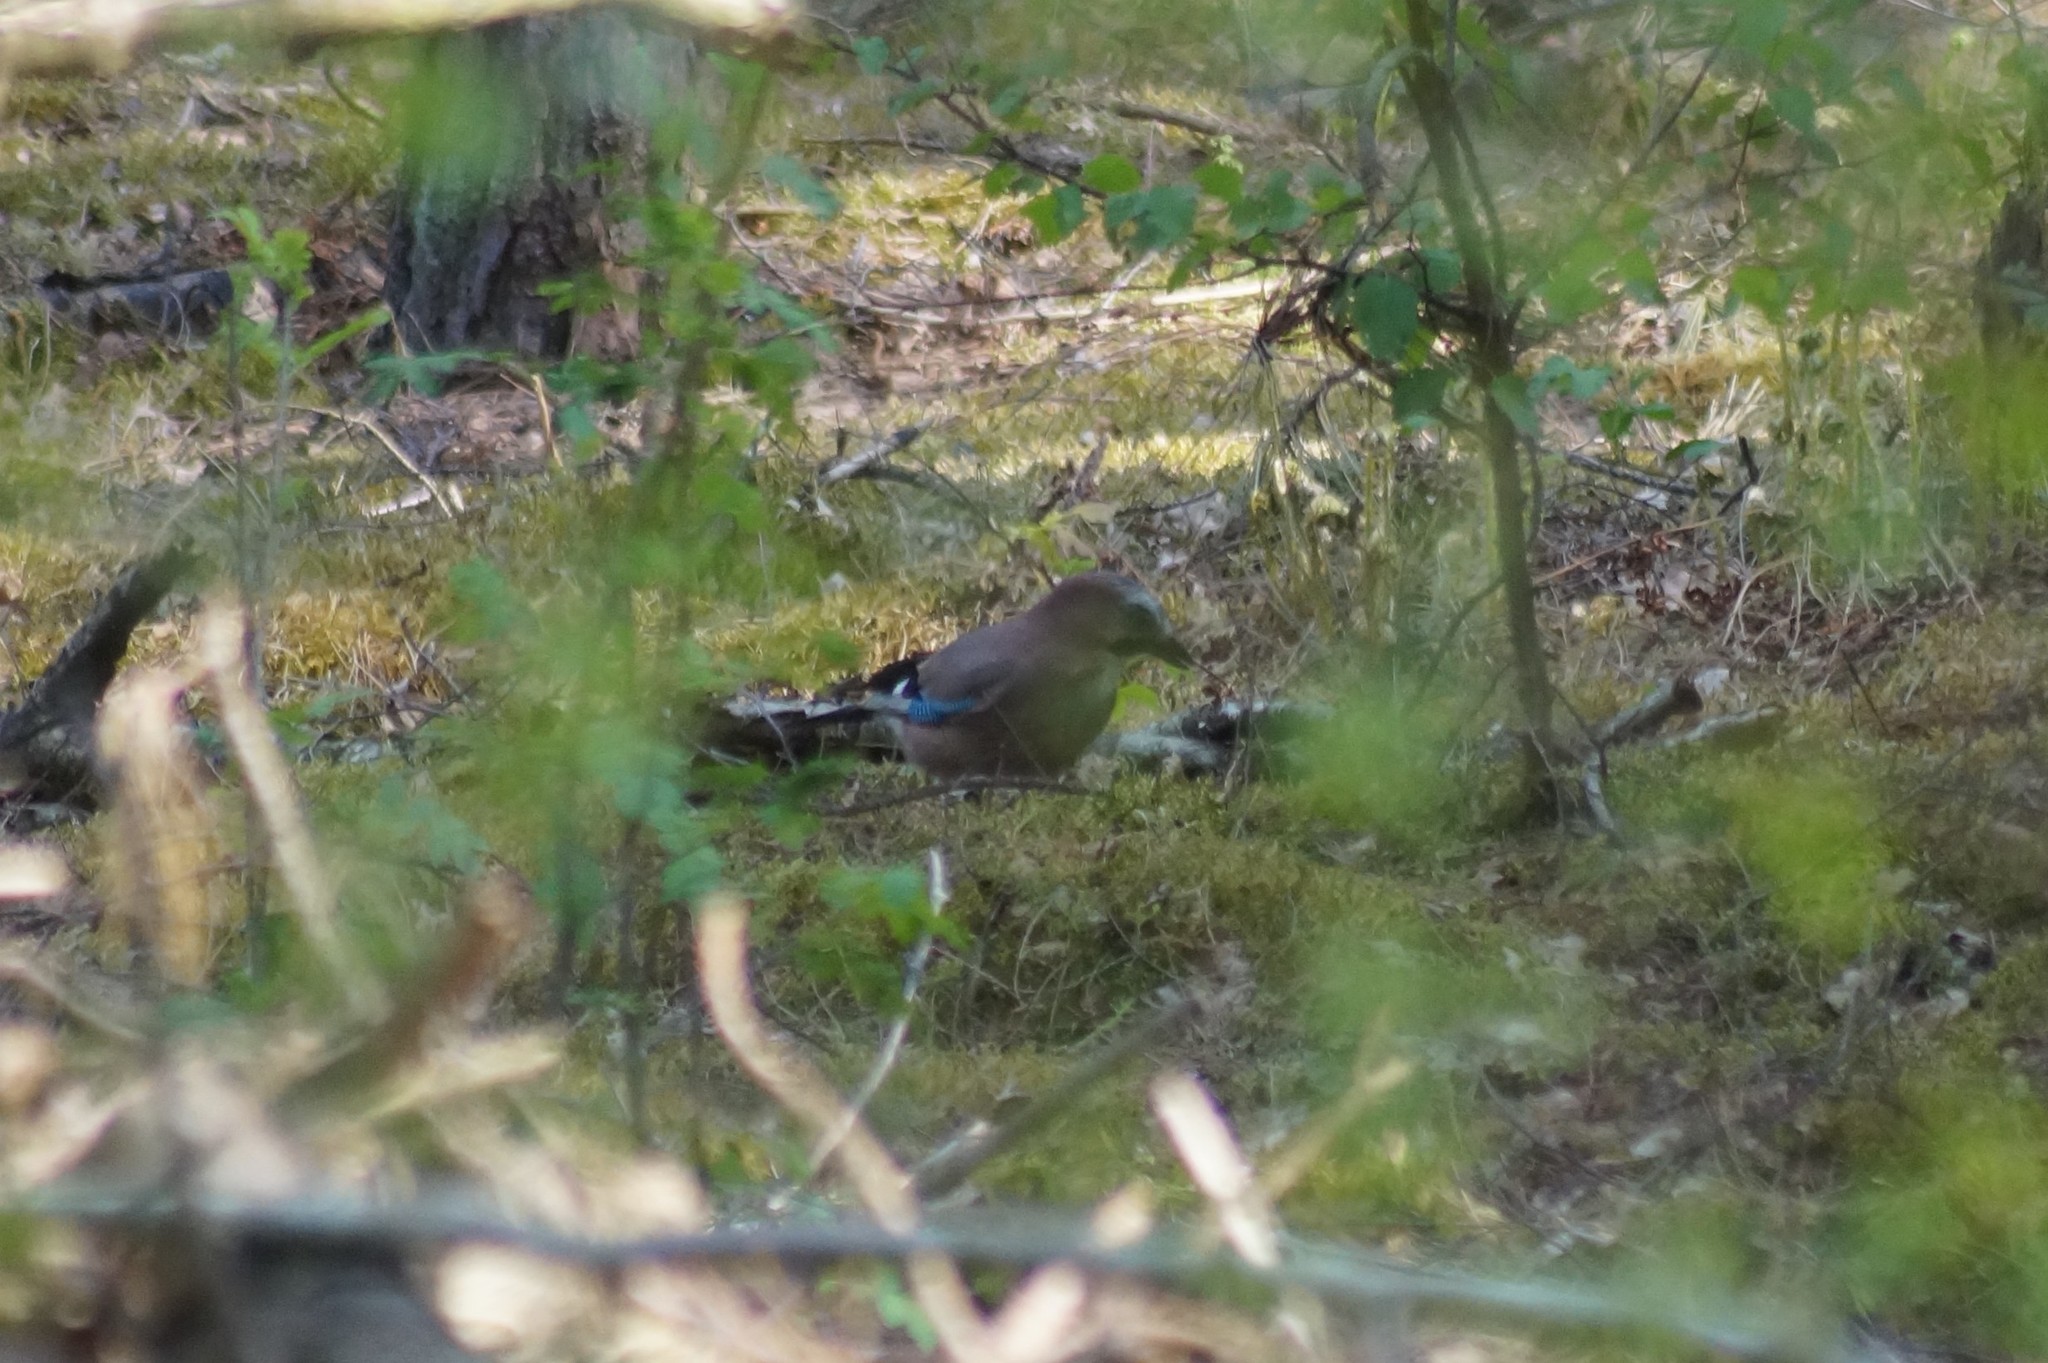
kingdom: Animalia
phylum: Chordata
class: Aves
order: Passeriformes
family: Corvidae
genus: Garrulus
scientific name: Garrulus glandarius
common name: Eurasian jay
